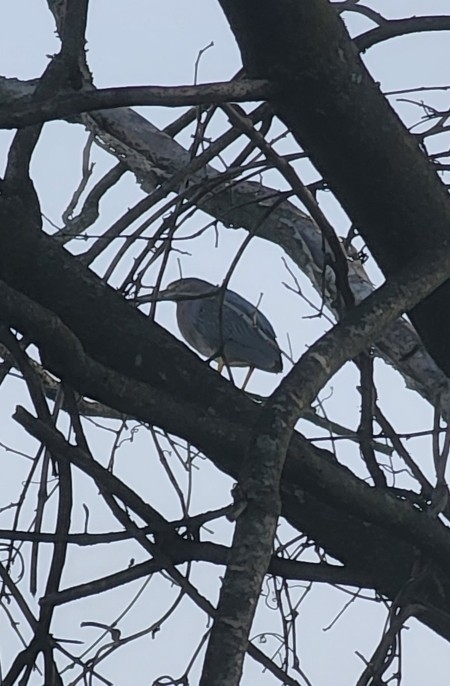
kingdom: Animalia
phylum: Chordata
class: Aves
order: Pelecaniformes
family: Ardeidae
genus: Butorides
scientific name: Butorides virescens
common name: Green heron
